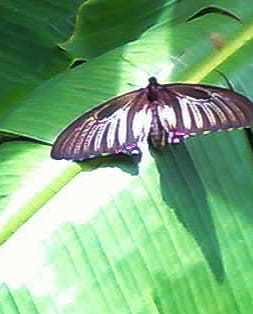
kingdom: Animalia
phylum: Arthropoda
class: Insecta
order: Lepidoptera
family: Papilionidae
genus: Troides
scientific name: Troides minos
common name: Malabar birdwing
